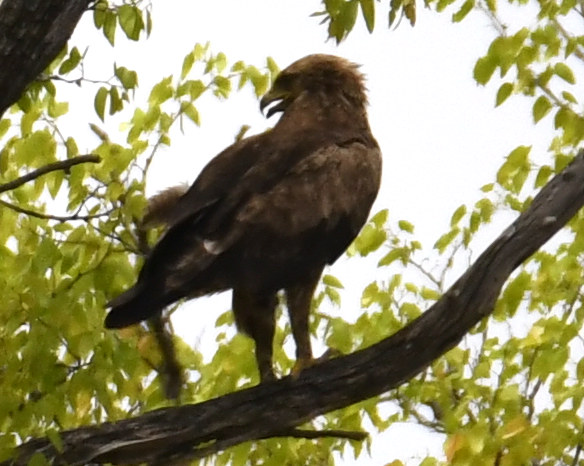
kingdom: Animalia
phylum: Chordata
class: Aves
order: Accipitriformes
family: Accipitridae
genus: Aquila
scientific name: Aquila pomarina
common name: Lesser spotted eagle
